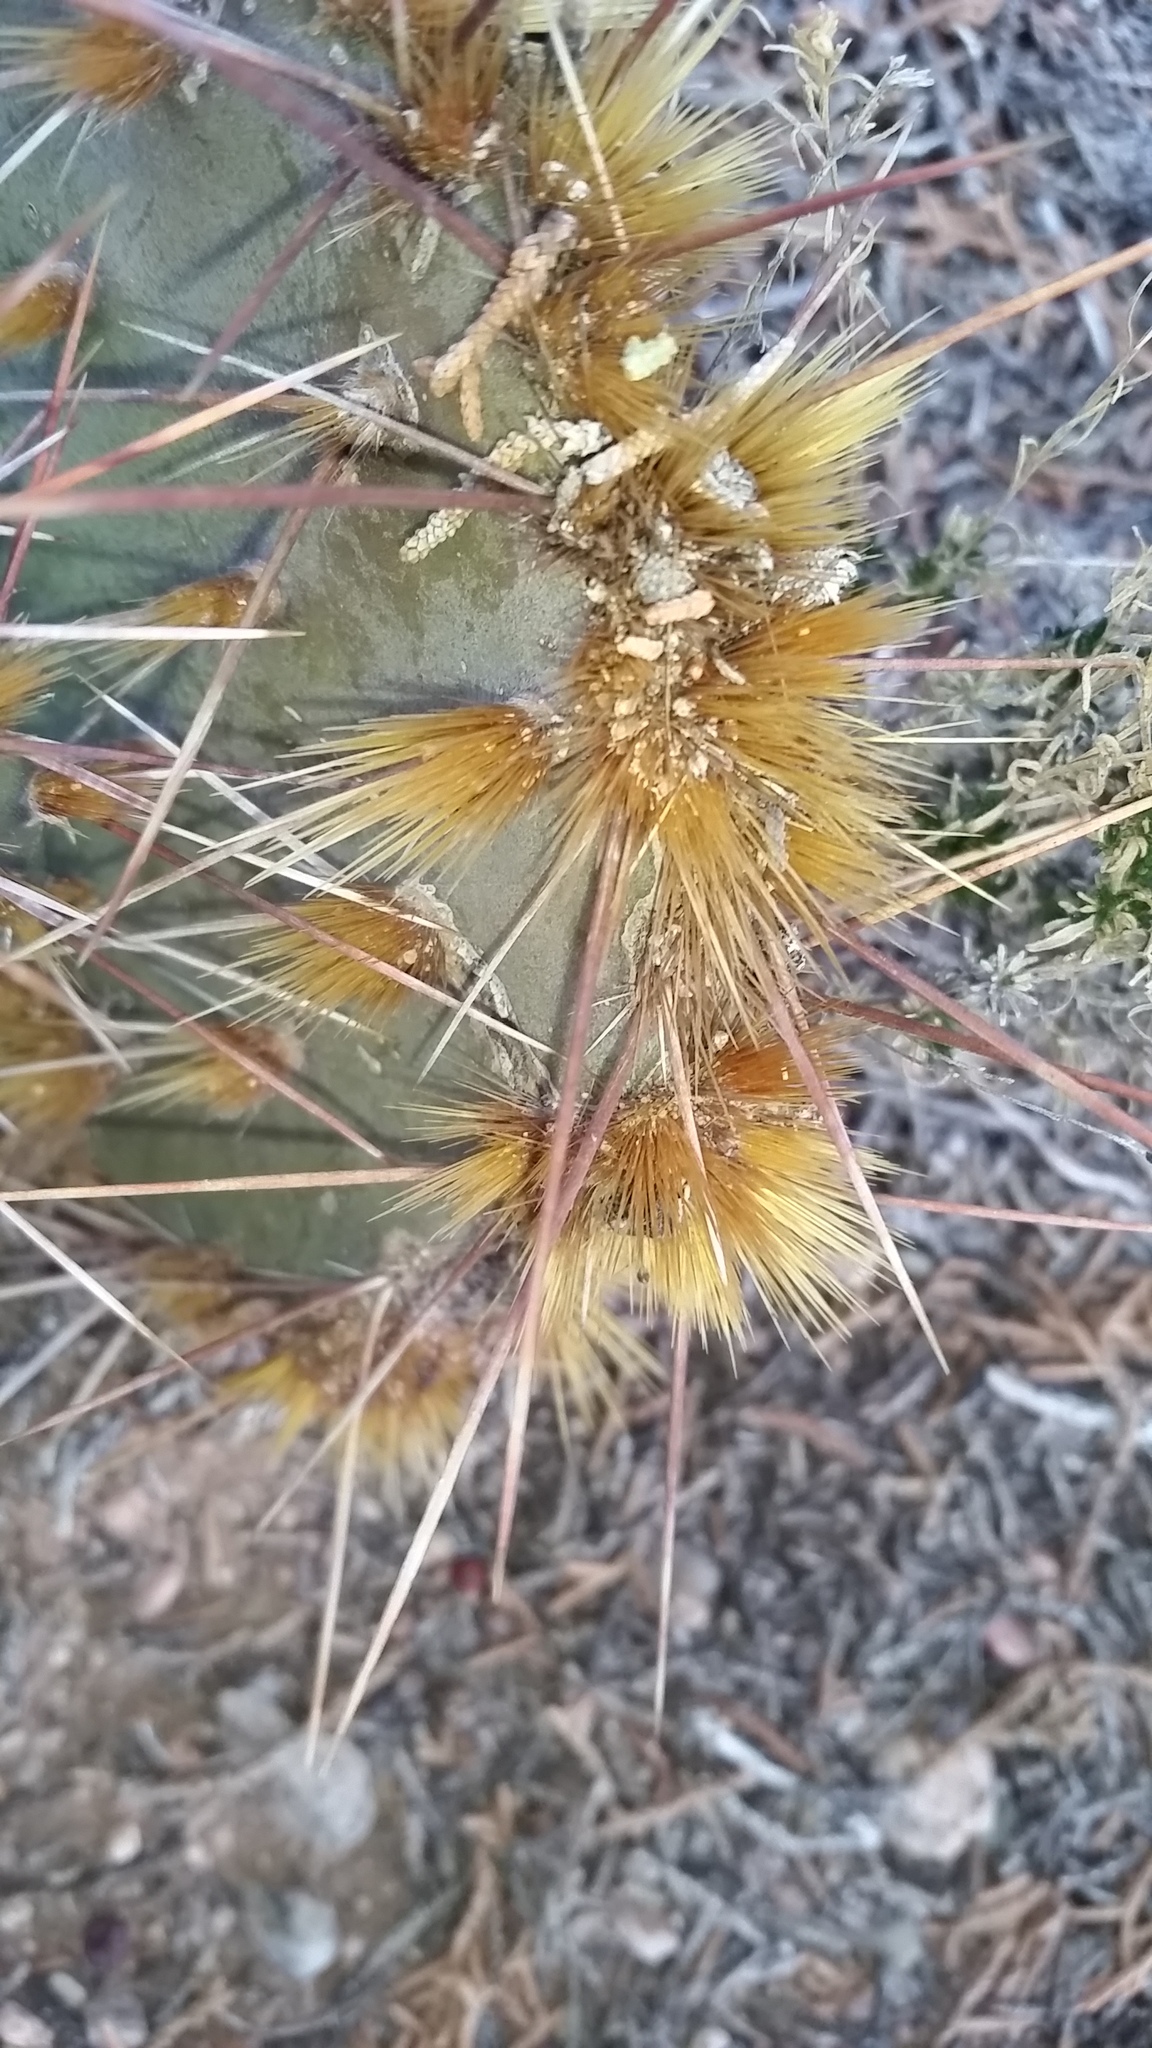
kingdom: Plantae
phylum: Tracheophyta
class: Magnoliopsida
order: Caryophyllales
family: Cactaceae
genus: Opuntia
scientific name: Opuntia phaeacantha
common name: New mexico prickly-pear
